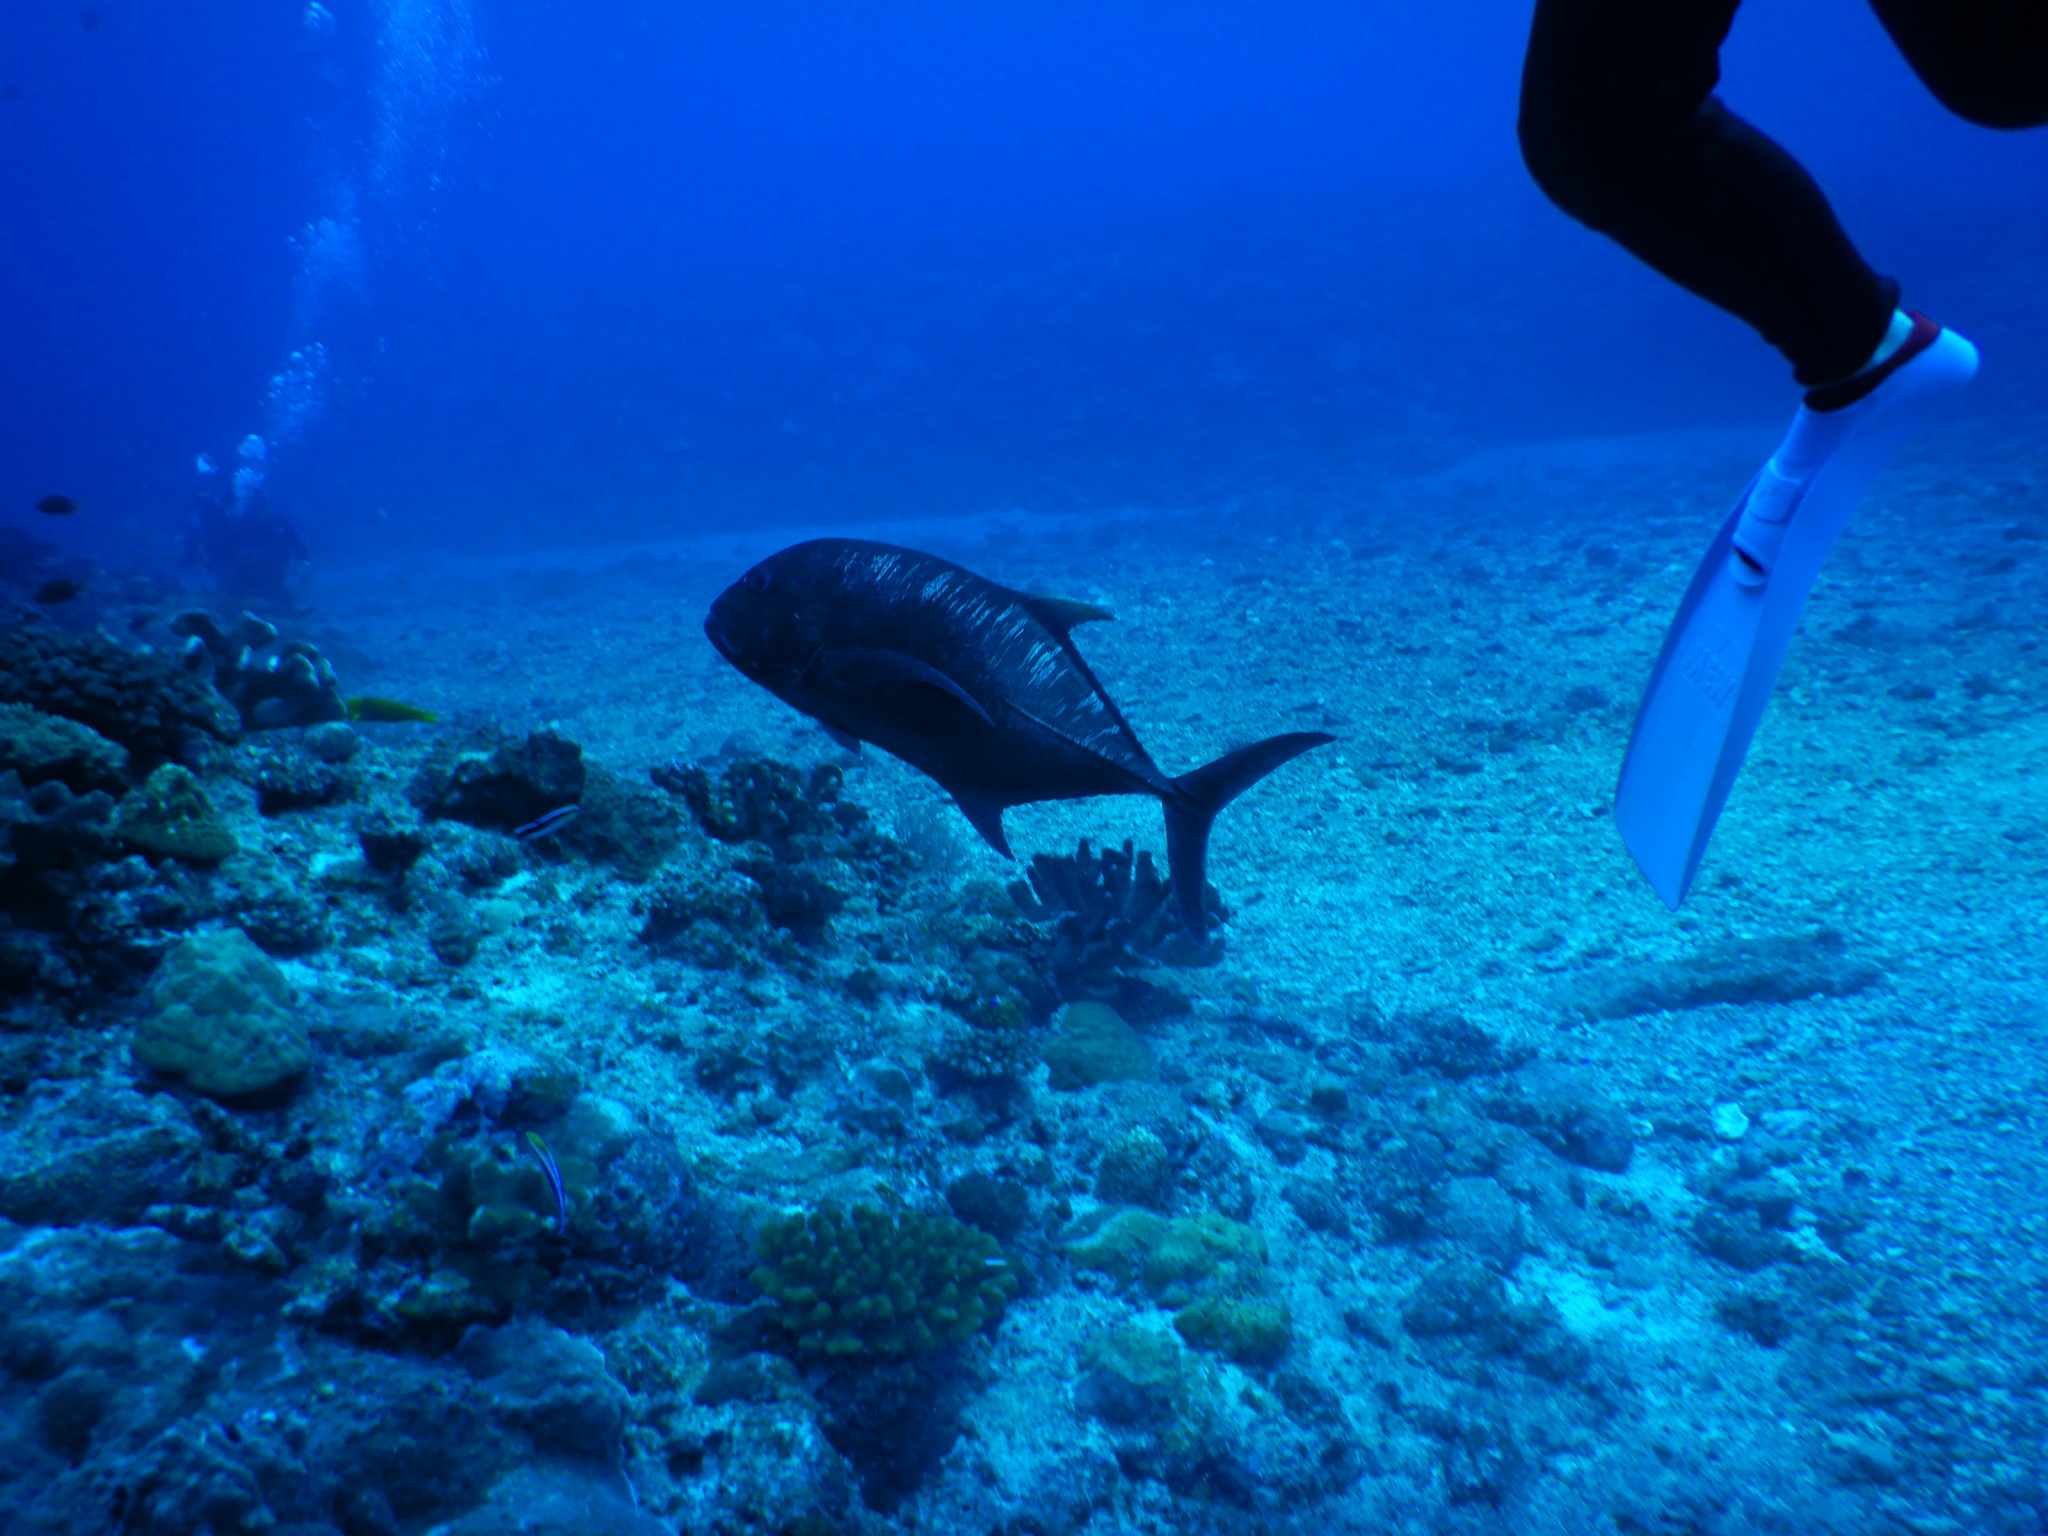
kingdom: Animalia
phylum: Chordata
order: Perciformes
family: Carangidae
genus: Caranx
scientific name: Caranx ignobilis
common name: Giant trevally
